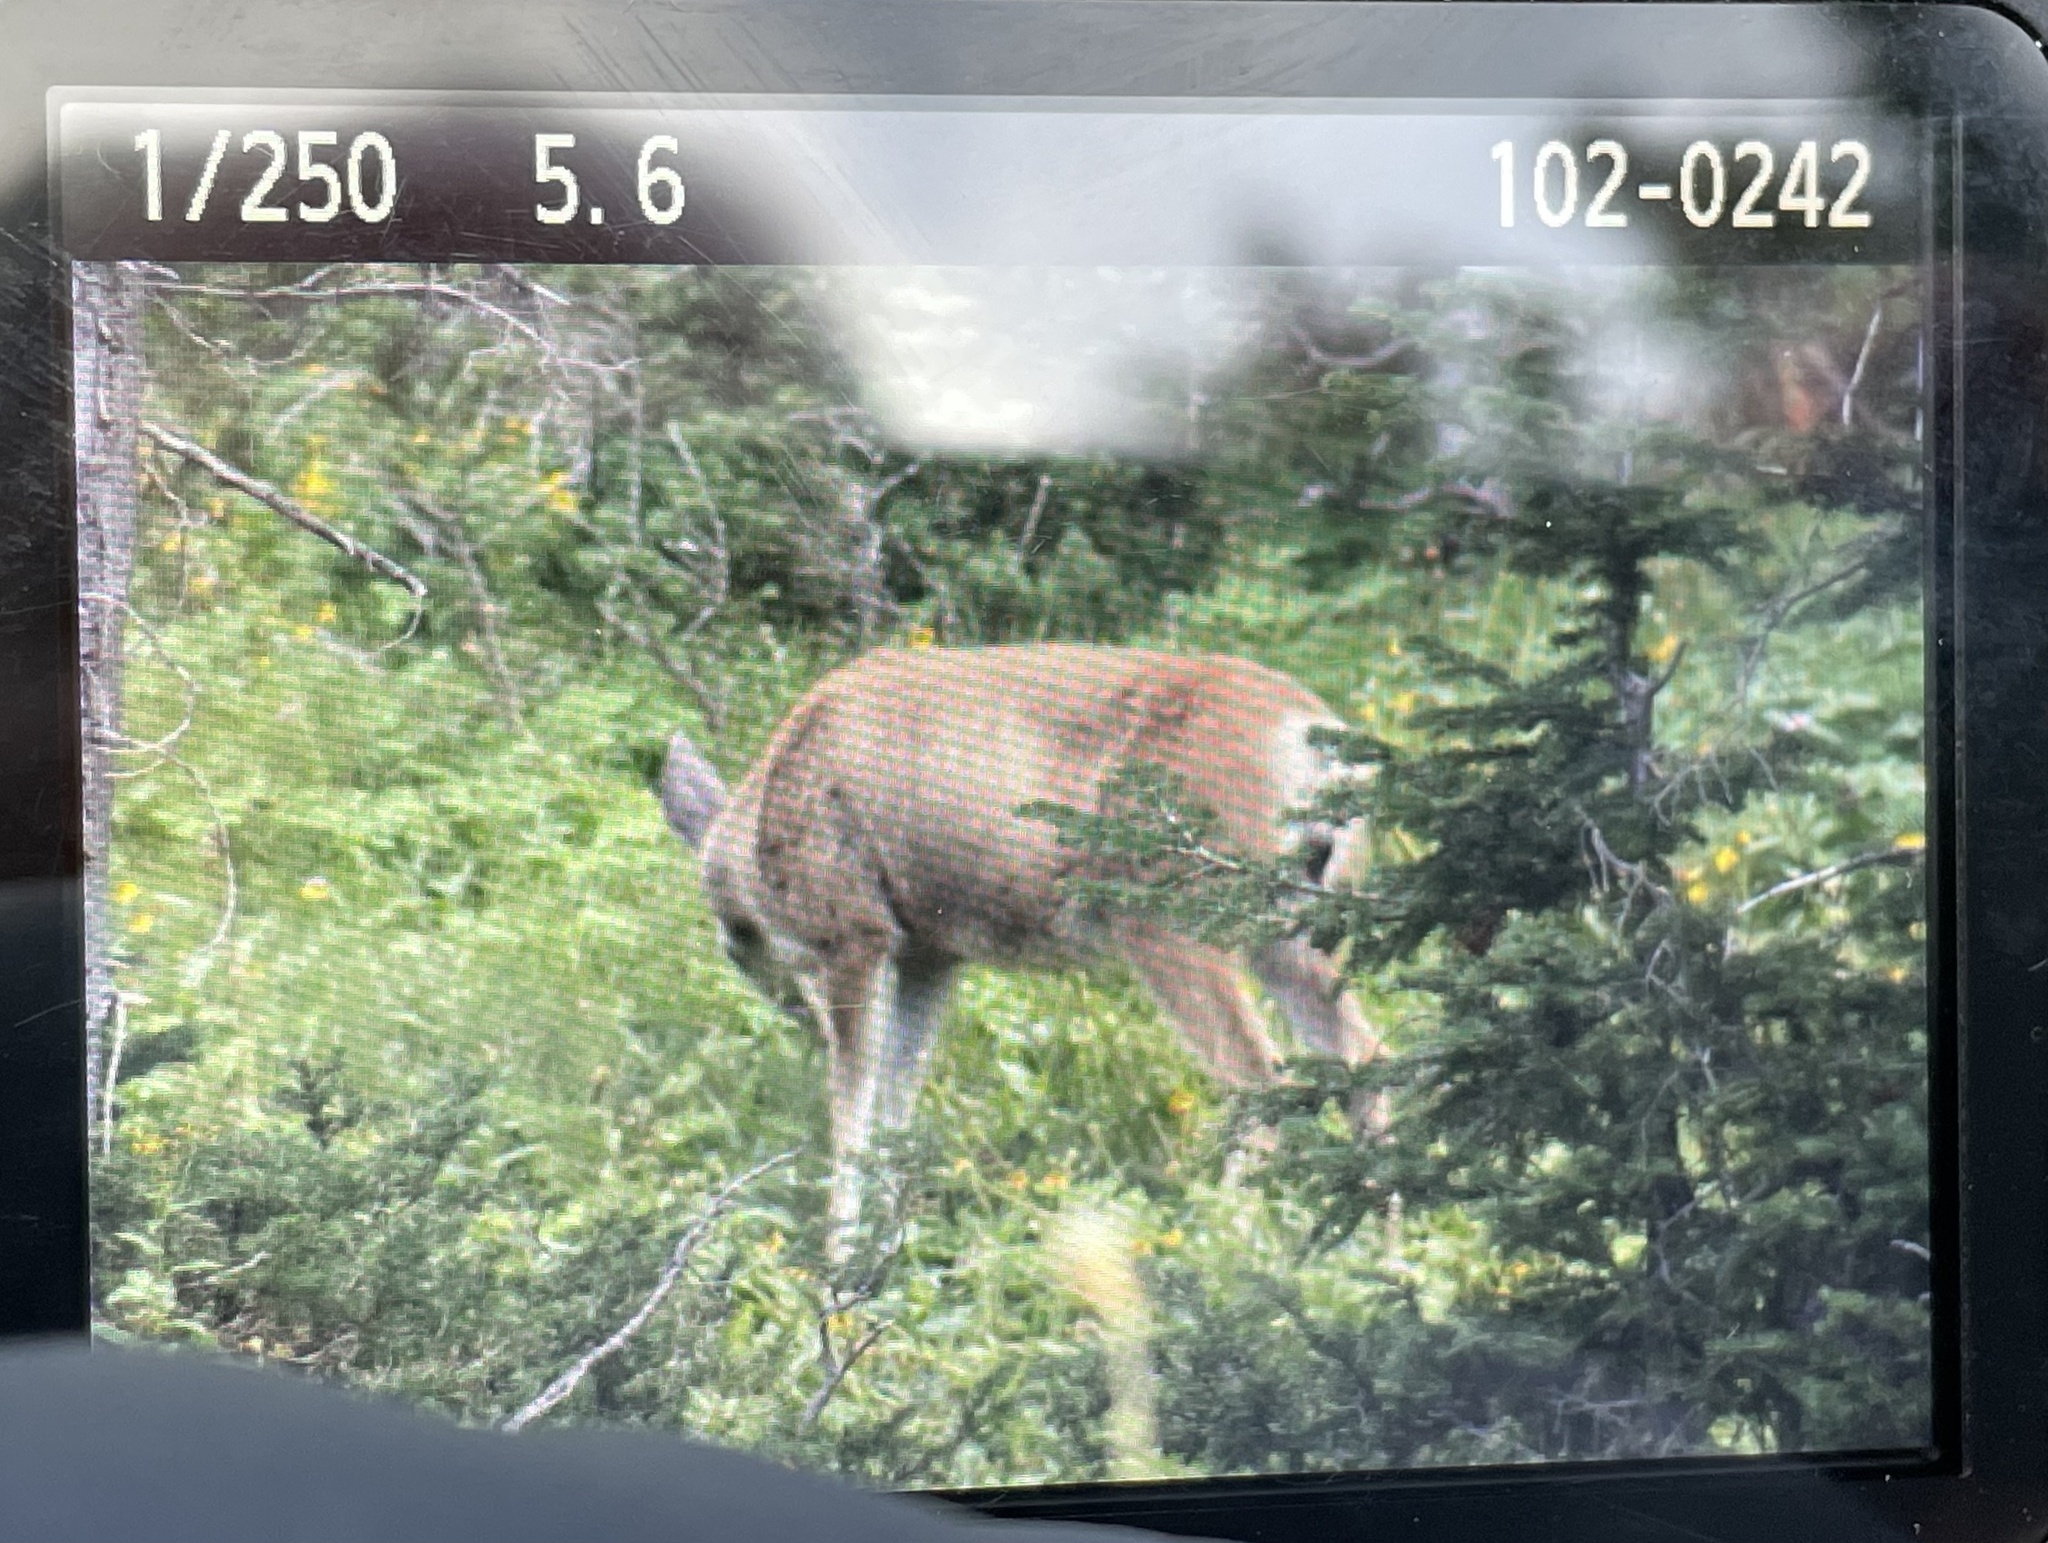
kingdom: Animalia
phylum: Chordata
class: Mammalia
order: Artiodactyla
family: Cervidae
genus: Odocoileus
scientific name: Odocoileus hemionus
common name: Mule deer
